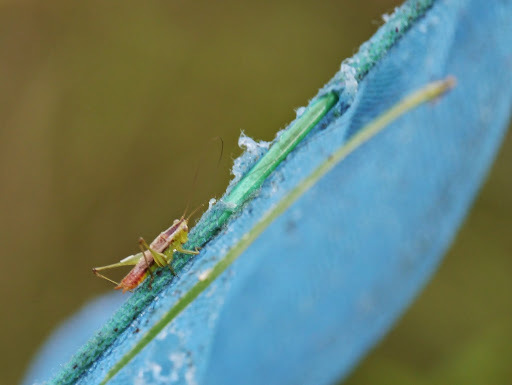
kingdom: Animalia
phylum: Arthropoda
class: Insecta
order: Orthoptera
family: Tettigoniidae
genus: Conocephalus
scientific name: Conocephalus brevipennis
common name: Short-winged meadow katydid
